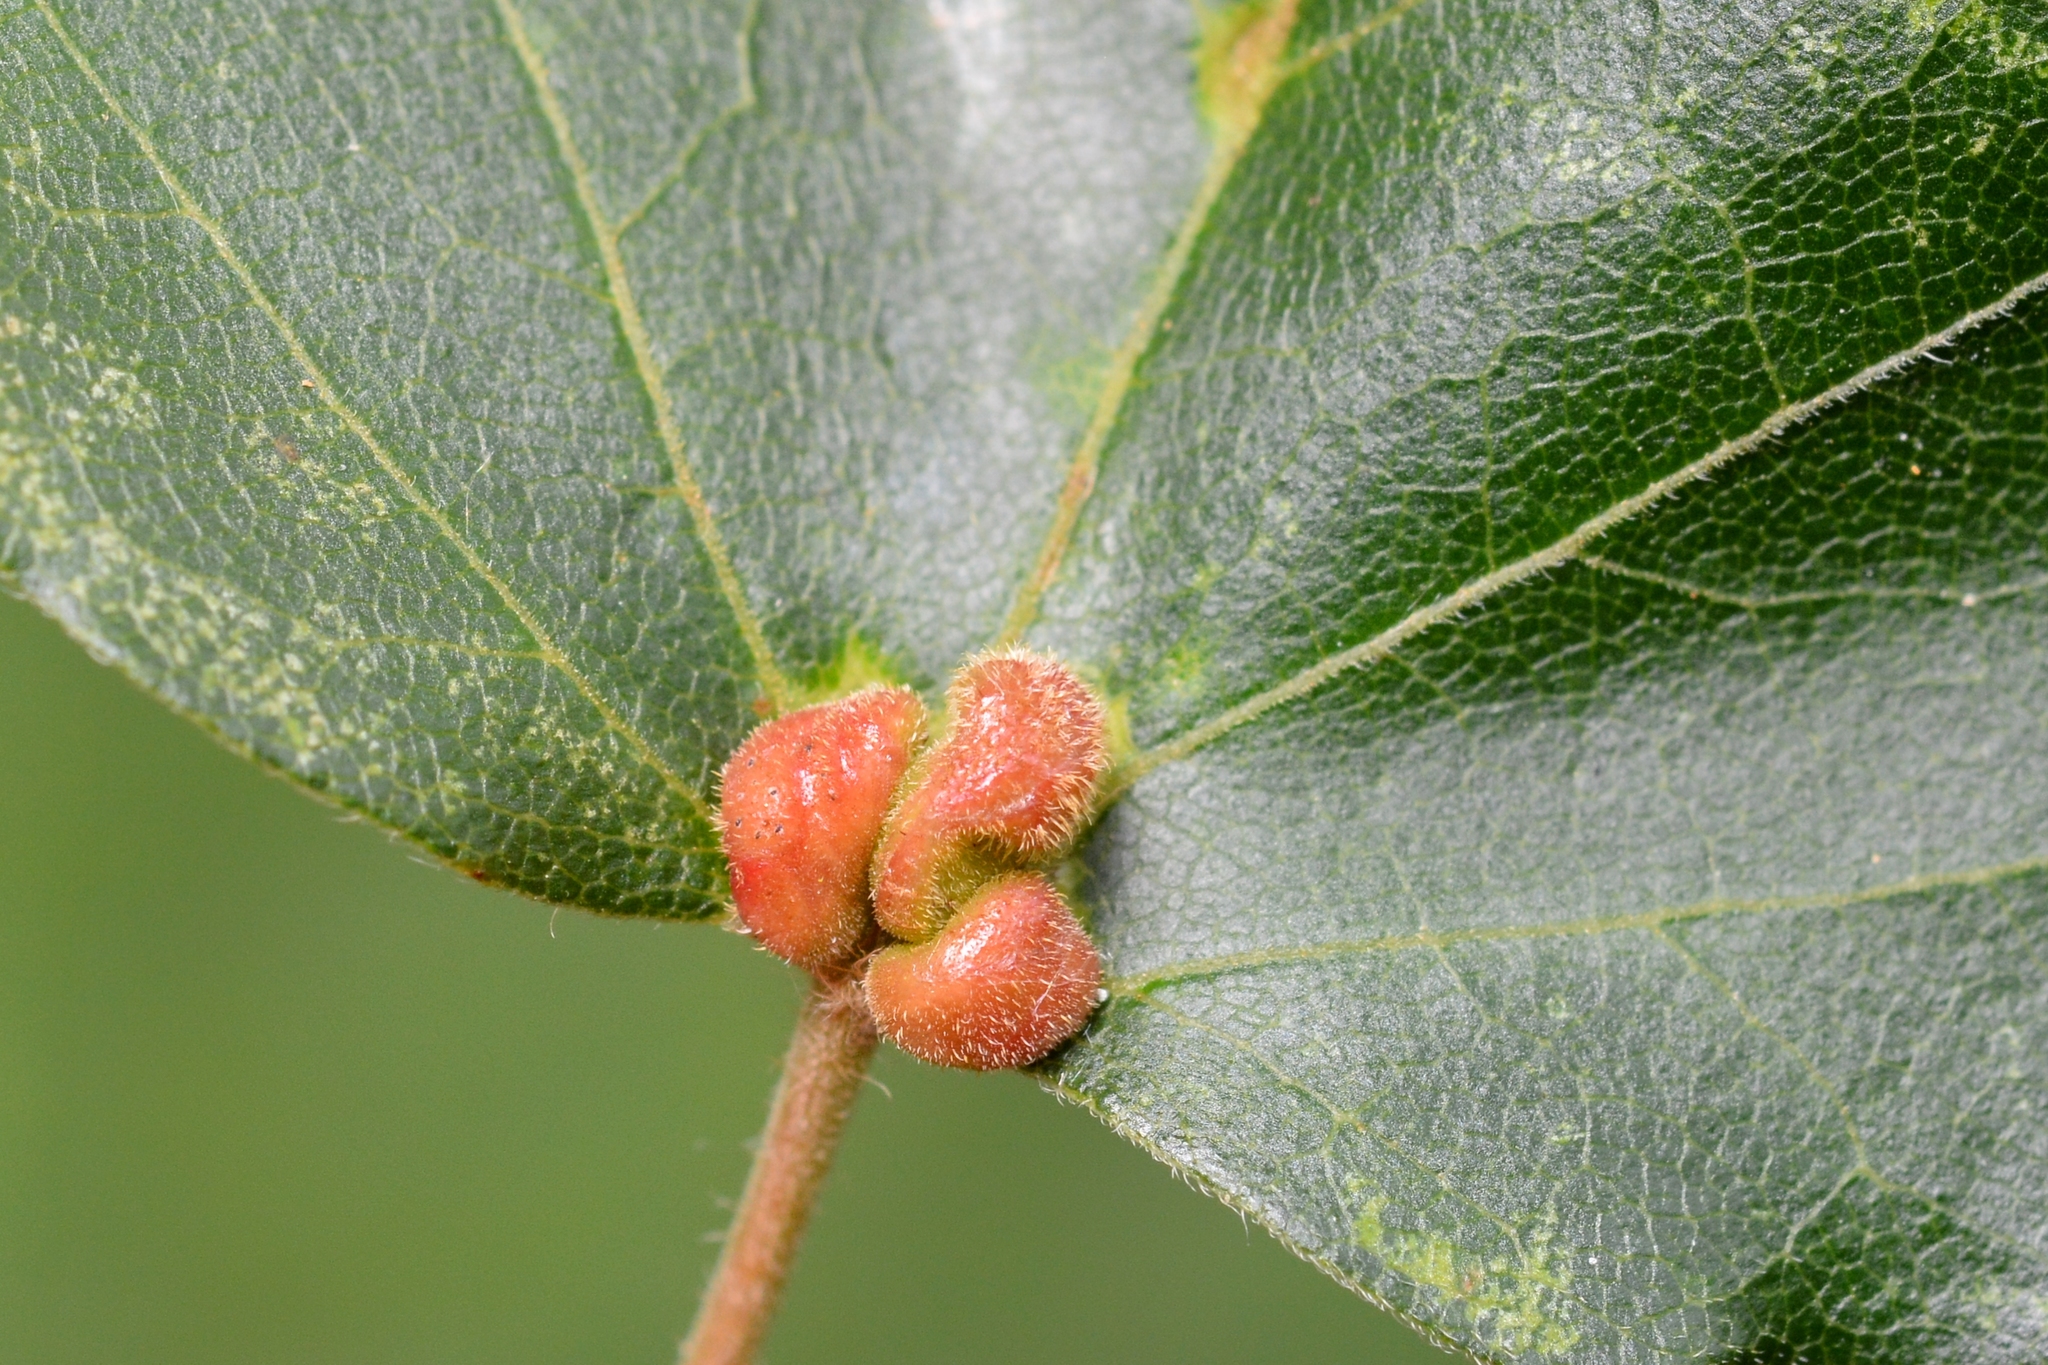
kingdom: Animalia
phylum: Arthropoda
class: Arachnida
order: Trombidiformes
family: Eriophyidae
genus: Aceria
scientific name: Aceria macrochelus
